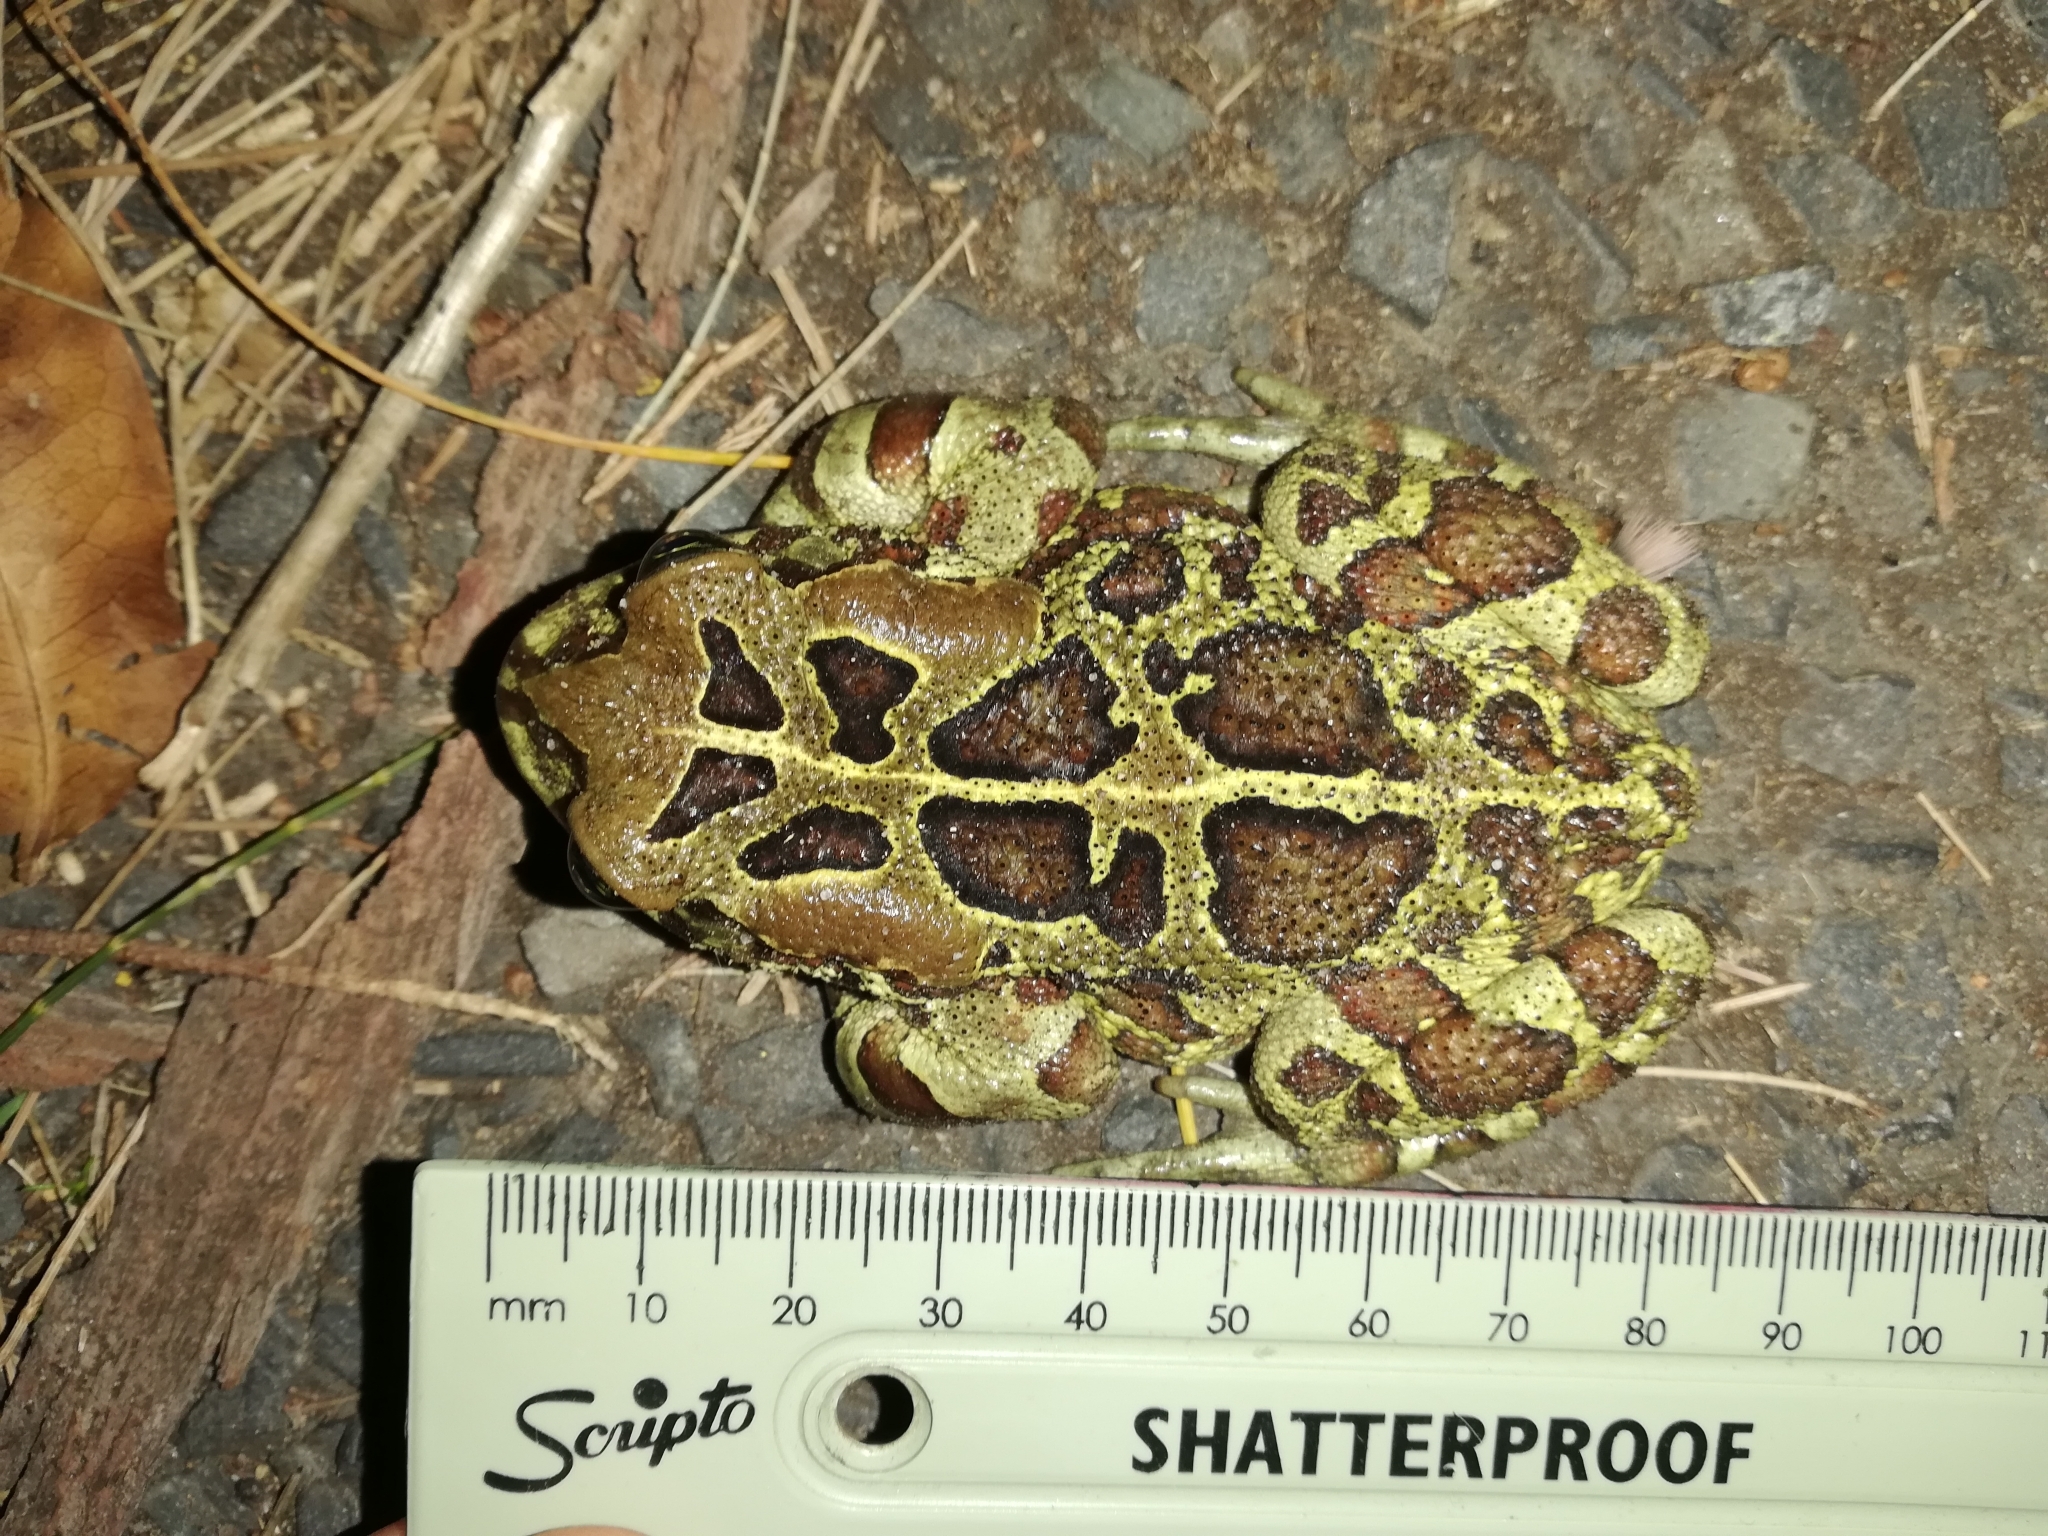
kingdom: Animalia
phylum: Chordata
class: Amphibia
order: Anura
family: Bufonidae
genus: Sclerophrys
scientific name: Sclerophrys pantherina
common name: Panther toad
